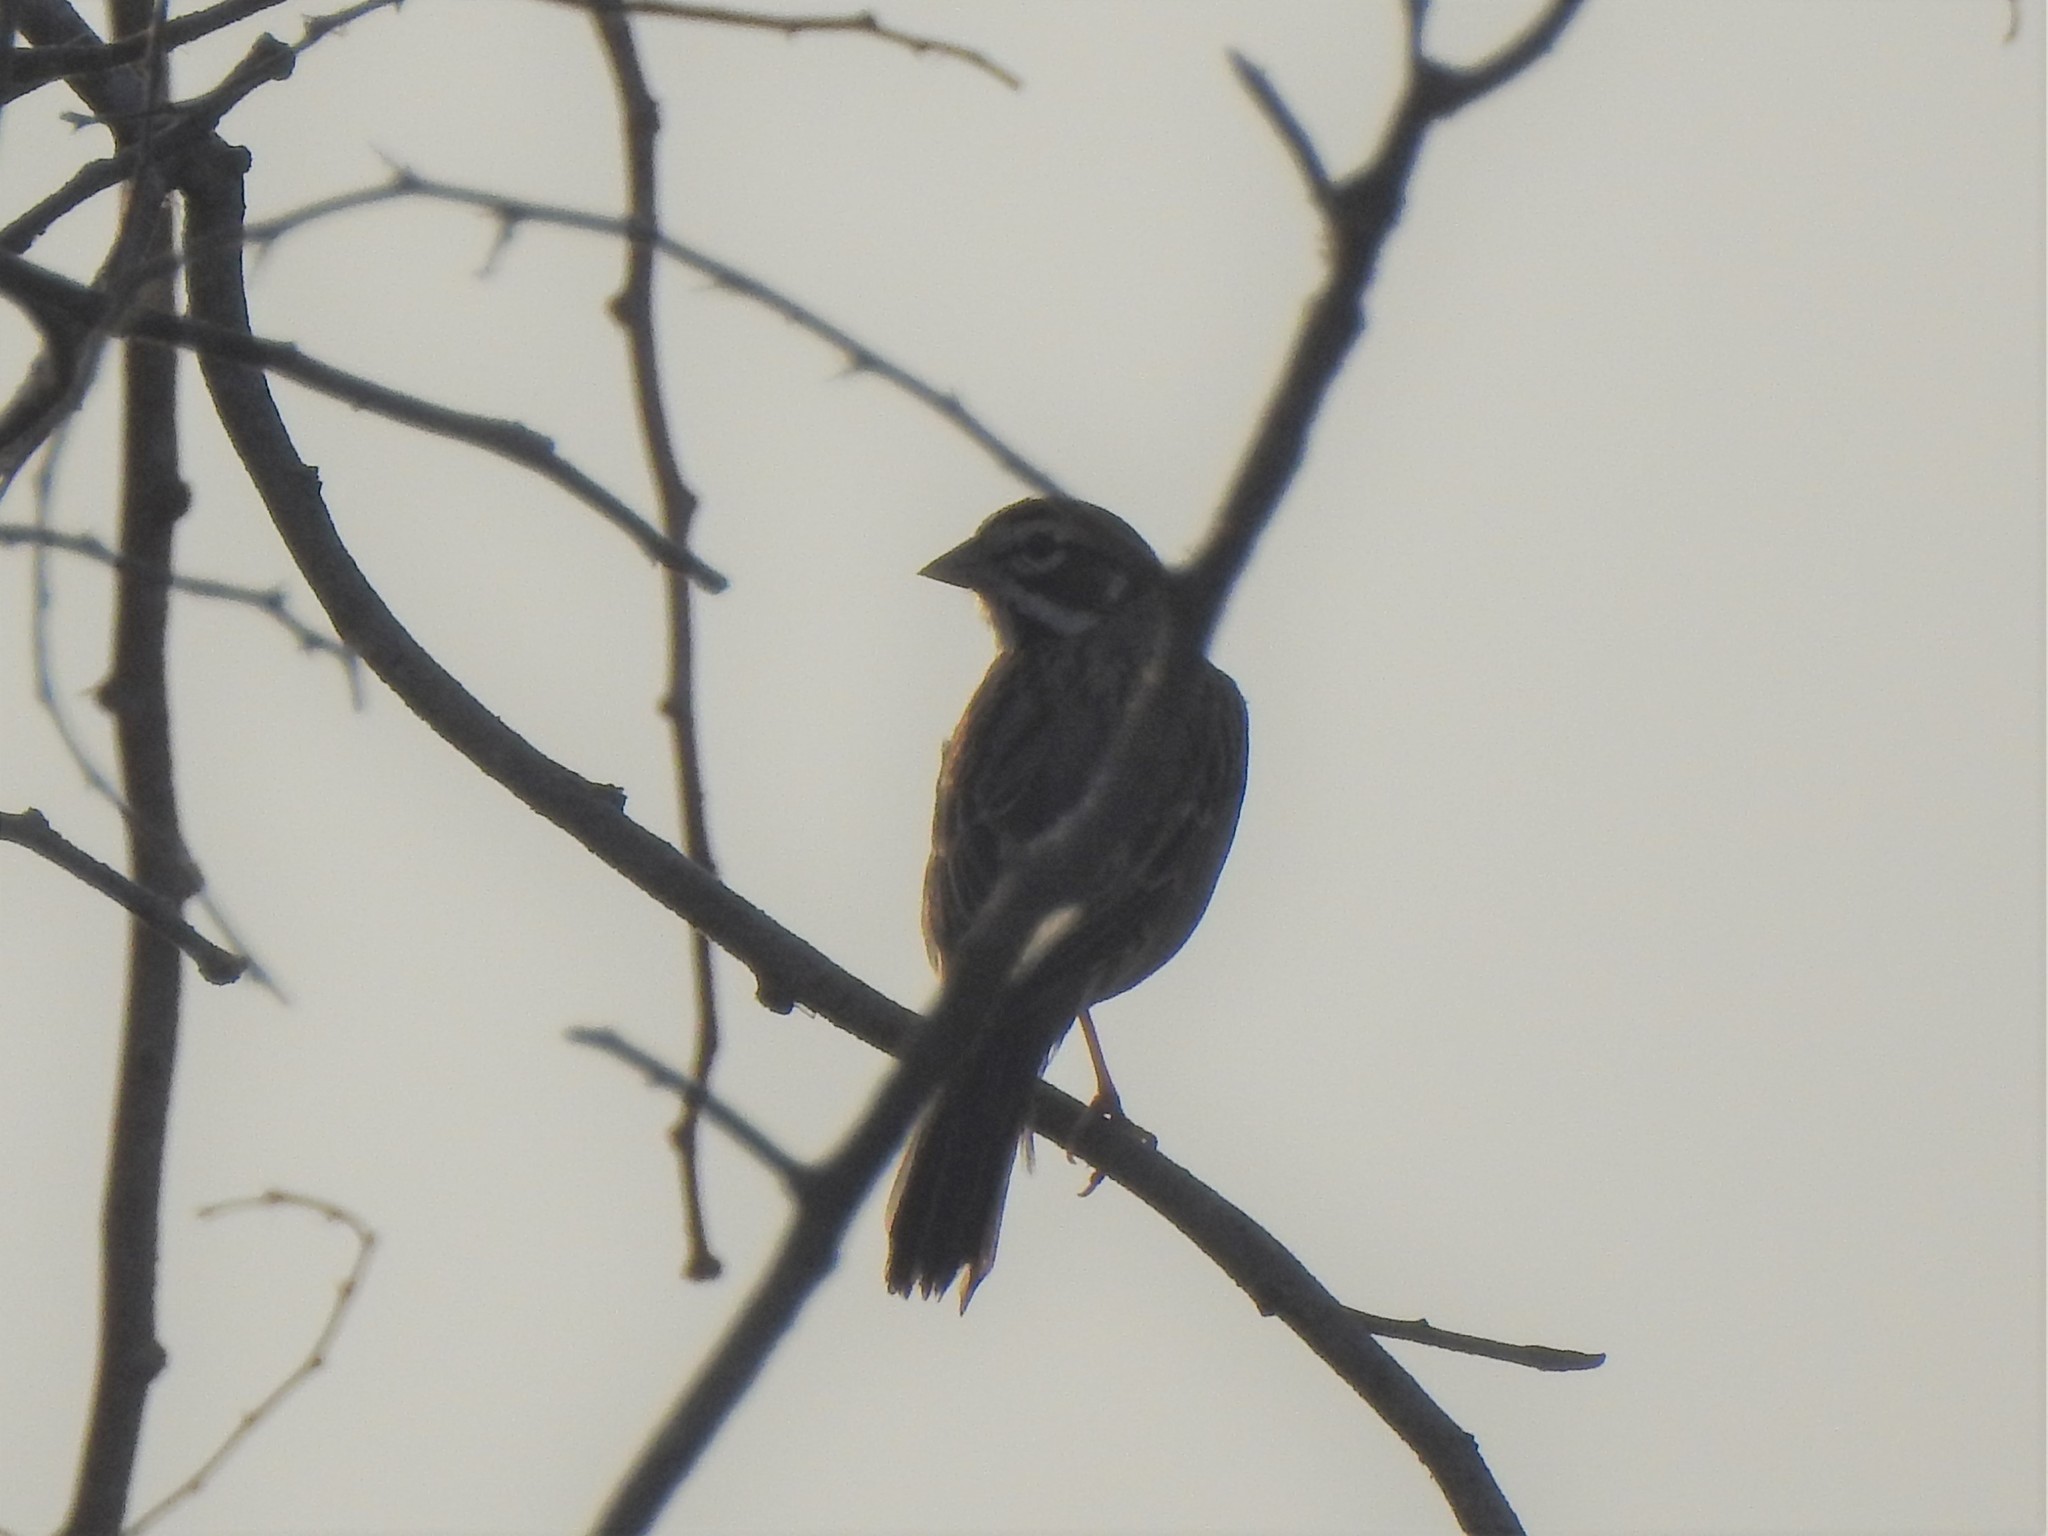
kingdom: Animalia
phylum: Chordata
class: Aves
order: Passeriformes
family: Passerellidae
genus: Chondestes
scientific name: Chondestes grammacus
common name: Lark sparrow
